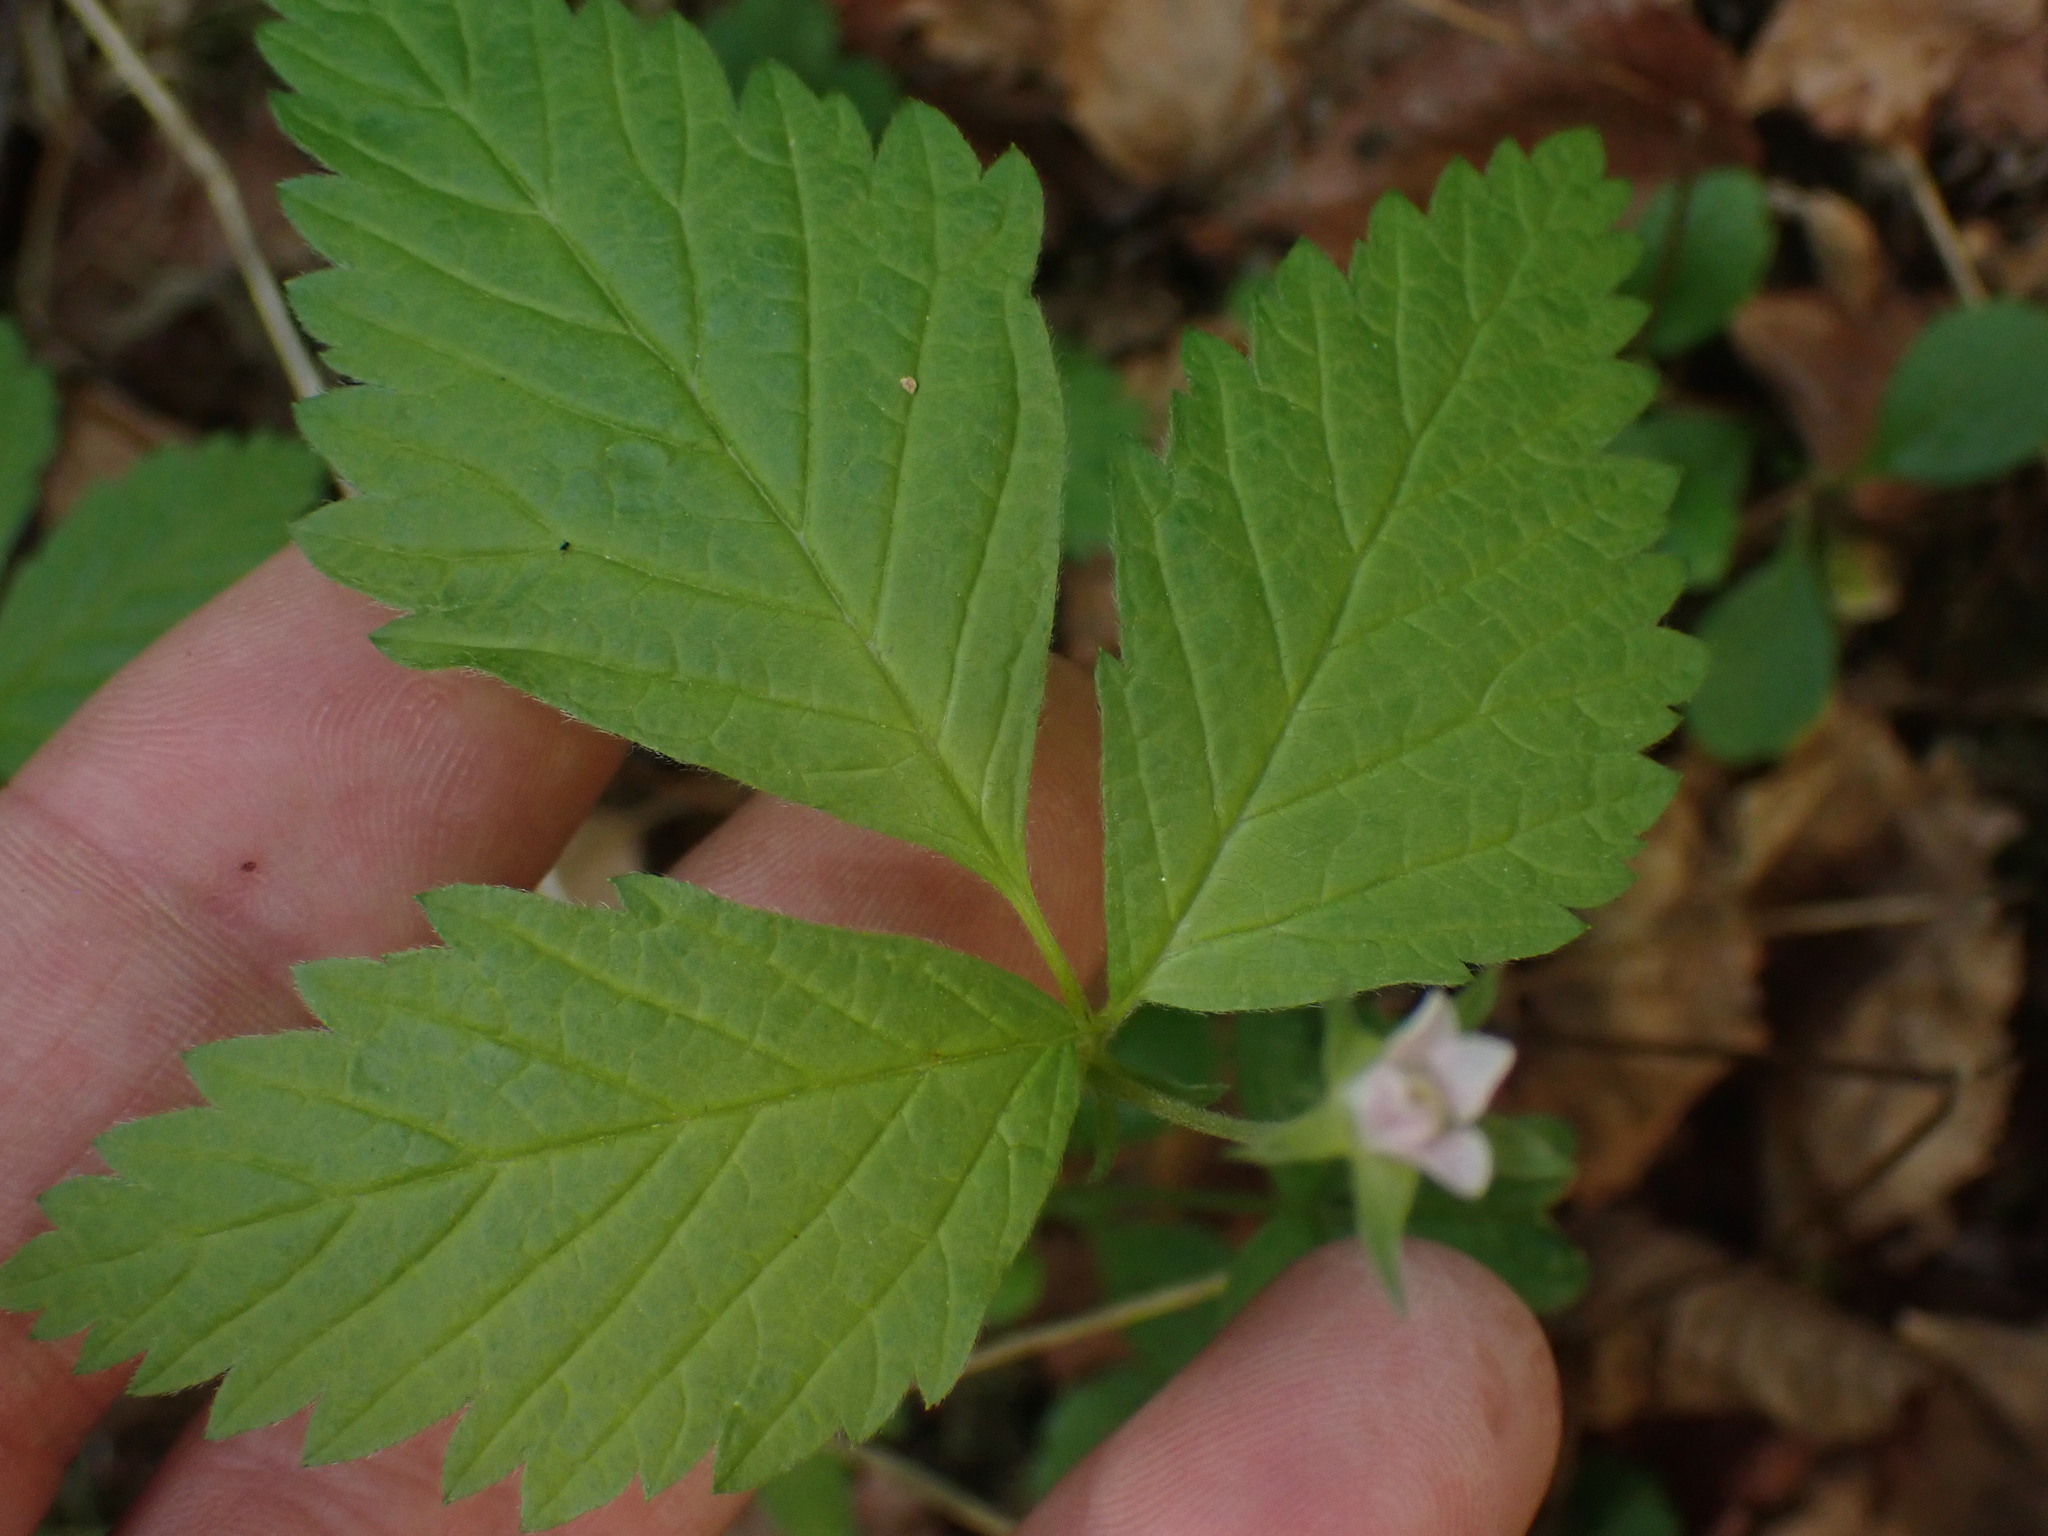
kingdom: Plantae
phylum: Tracheophyta
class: Magnoliopsida
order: Rosales
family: Rosaceae
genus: Rubus
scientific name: Rubus pubescens
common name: Dwarf raspberry
